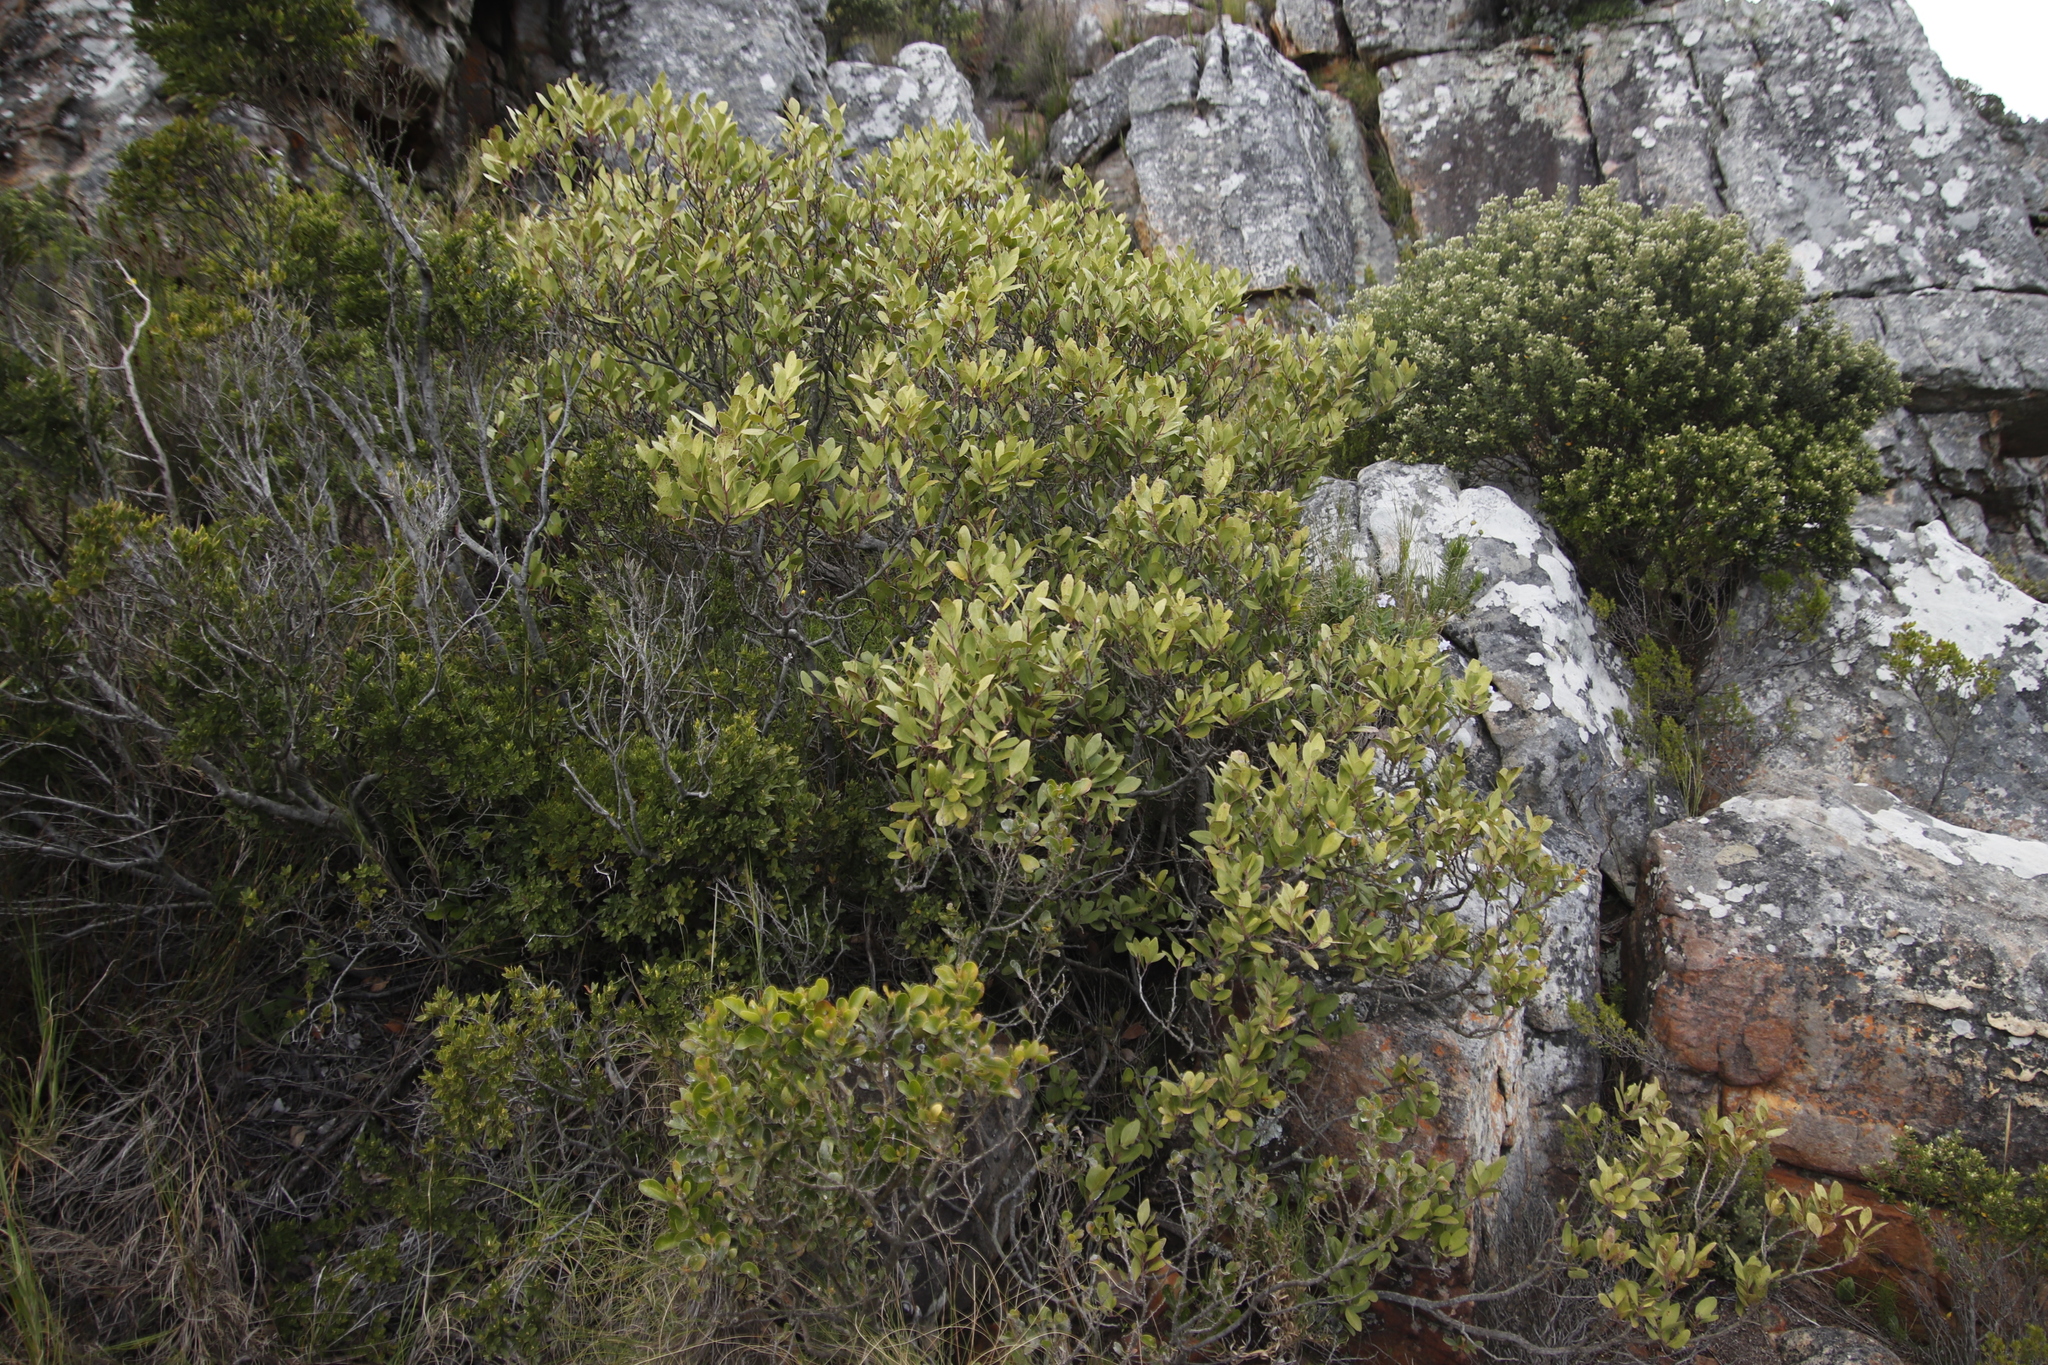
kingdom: Plantae
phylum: Tracheophyta
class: Magnoliopsida
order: Celastrales
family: Celastraceae
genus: Pterocelastrus
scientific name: Pterocelastrus tricuspidatus
